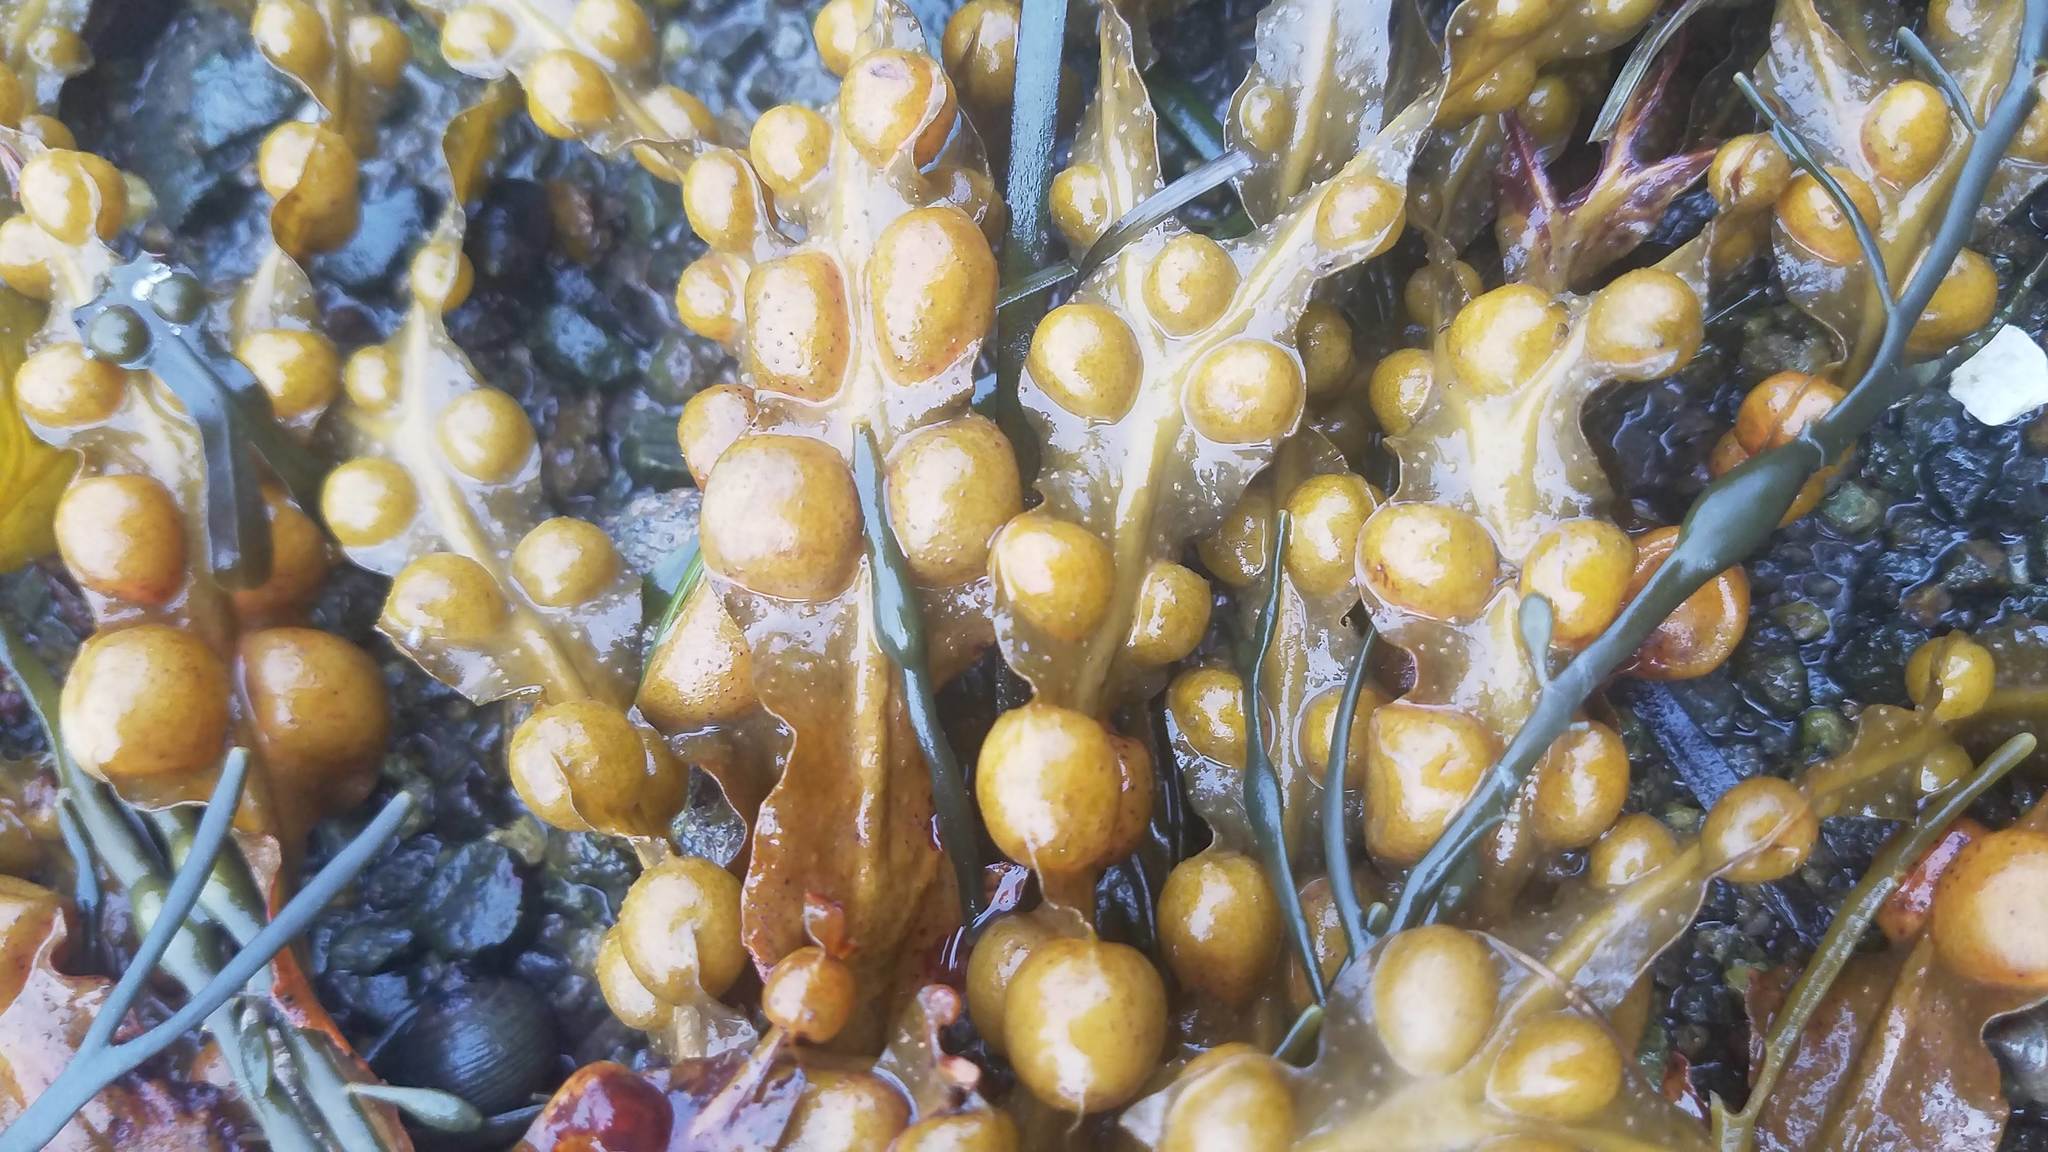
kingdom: Chromista
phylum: Ochrophyta
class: Phaeophyceae
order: Fucales
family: Fucaceae
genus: Fucus
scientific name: Fucus vesiculosus
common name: Bladder wrack
